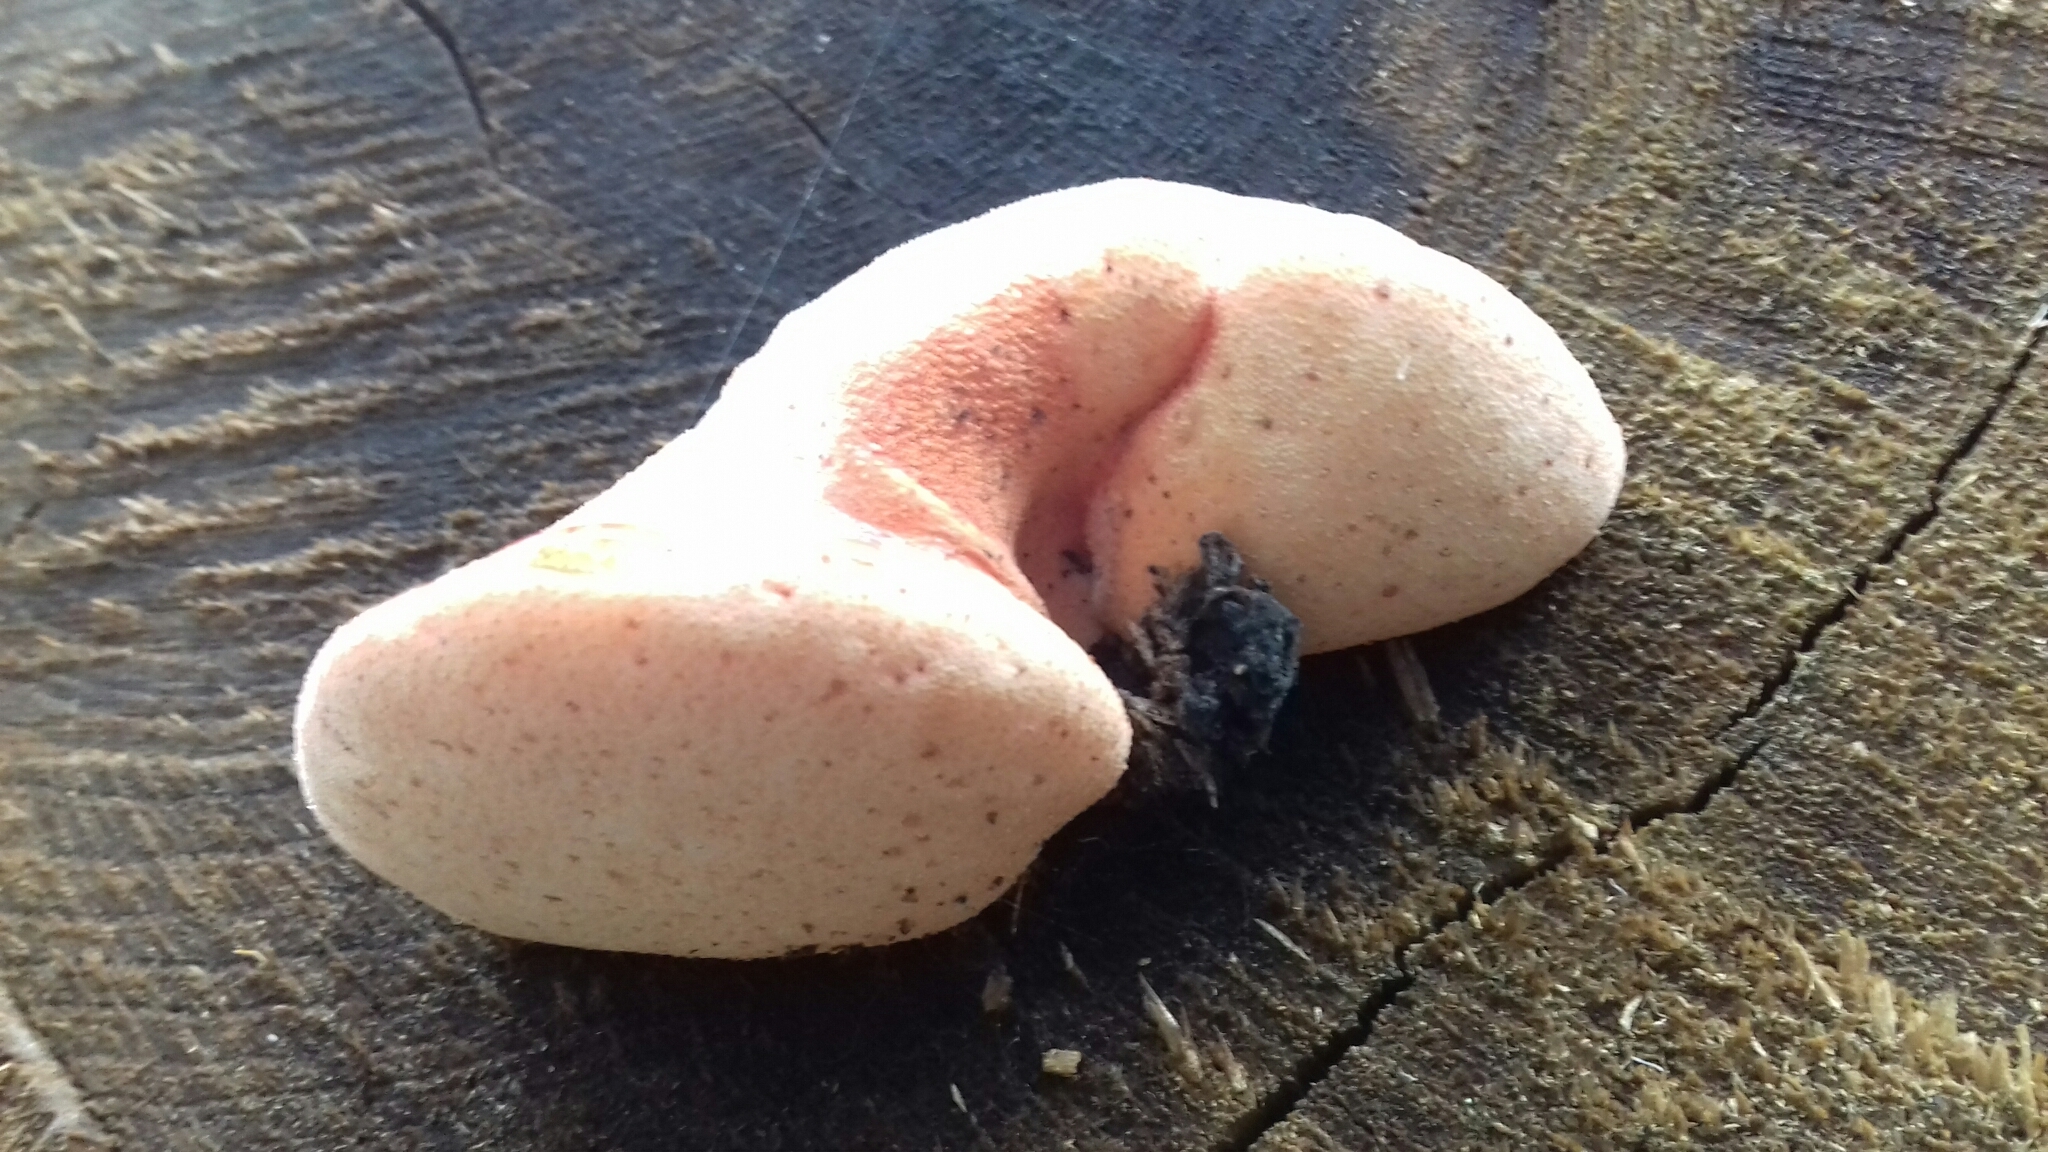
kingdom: Fungi
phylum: Basidiomycota
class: Agaricomycetes
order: Agaricales
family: Fistulinaceae
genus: Fistulina
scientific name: Fistulina hepatica
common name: Beef-steak fungus
